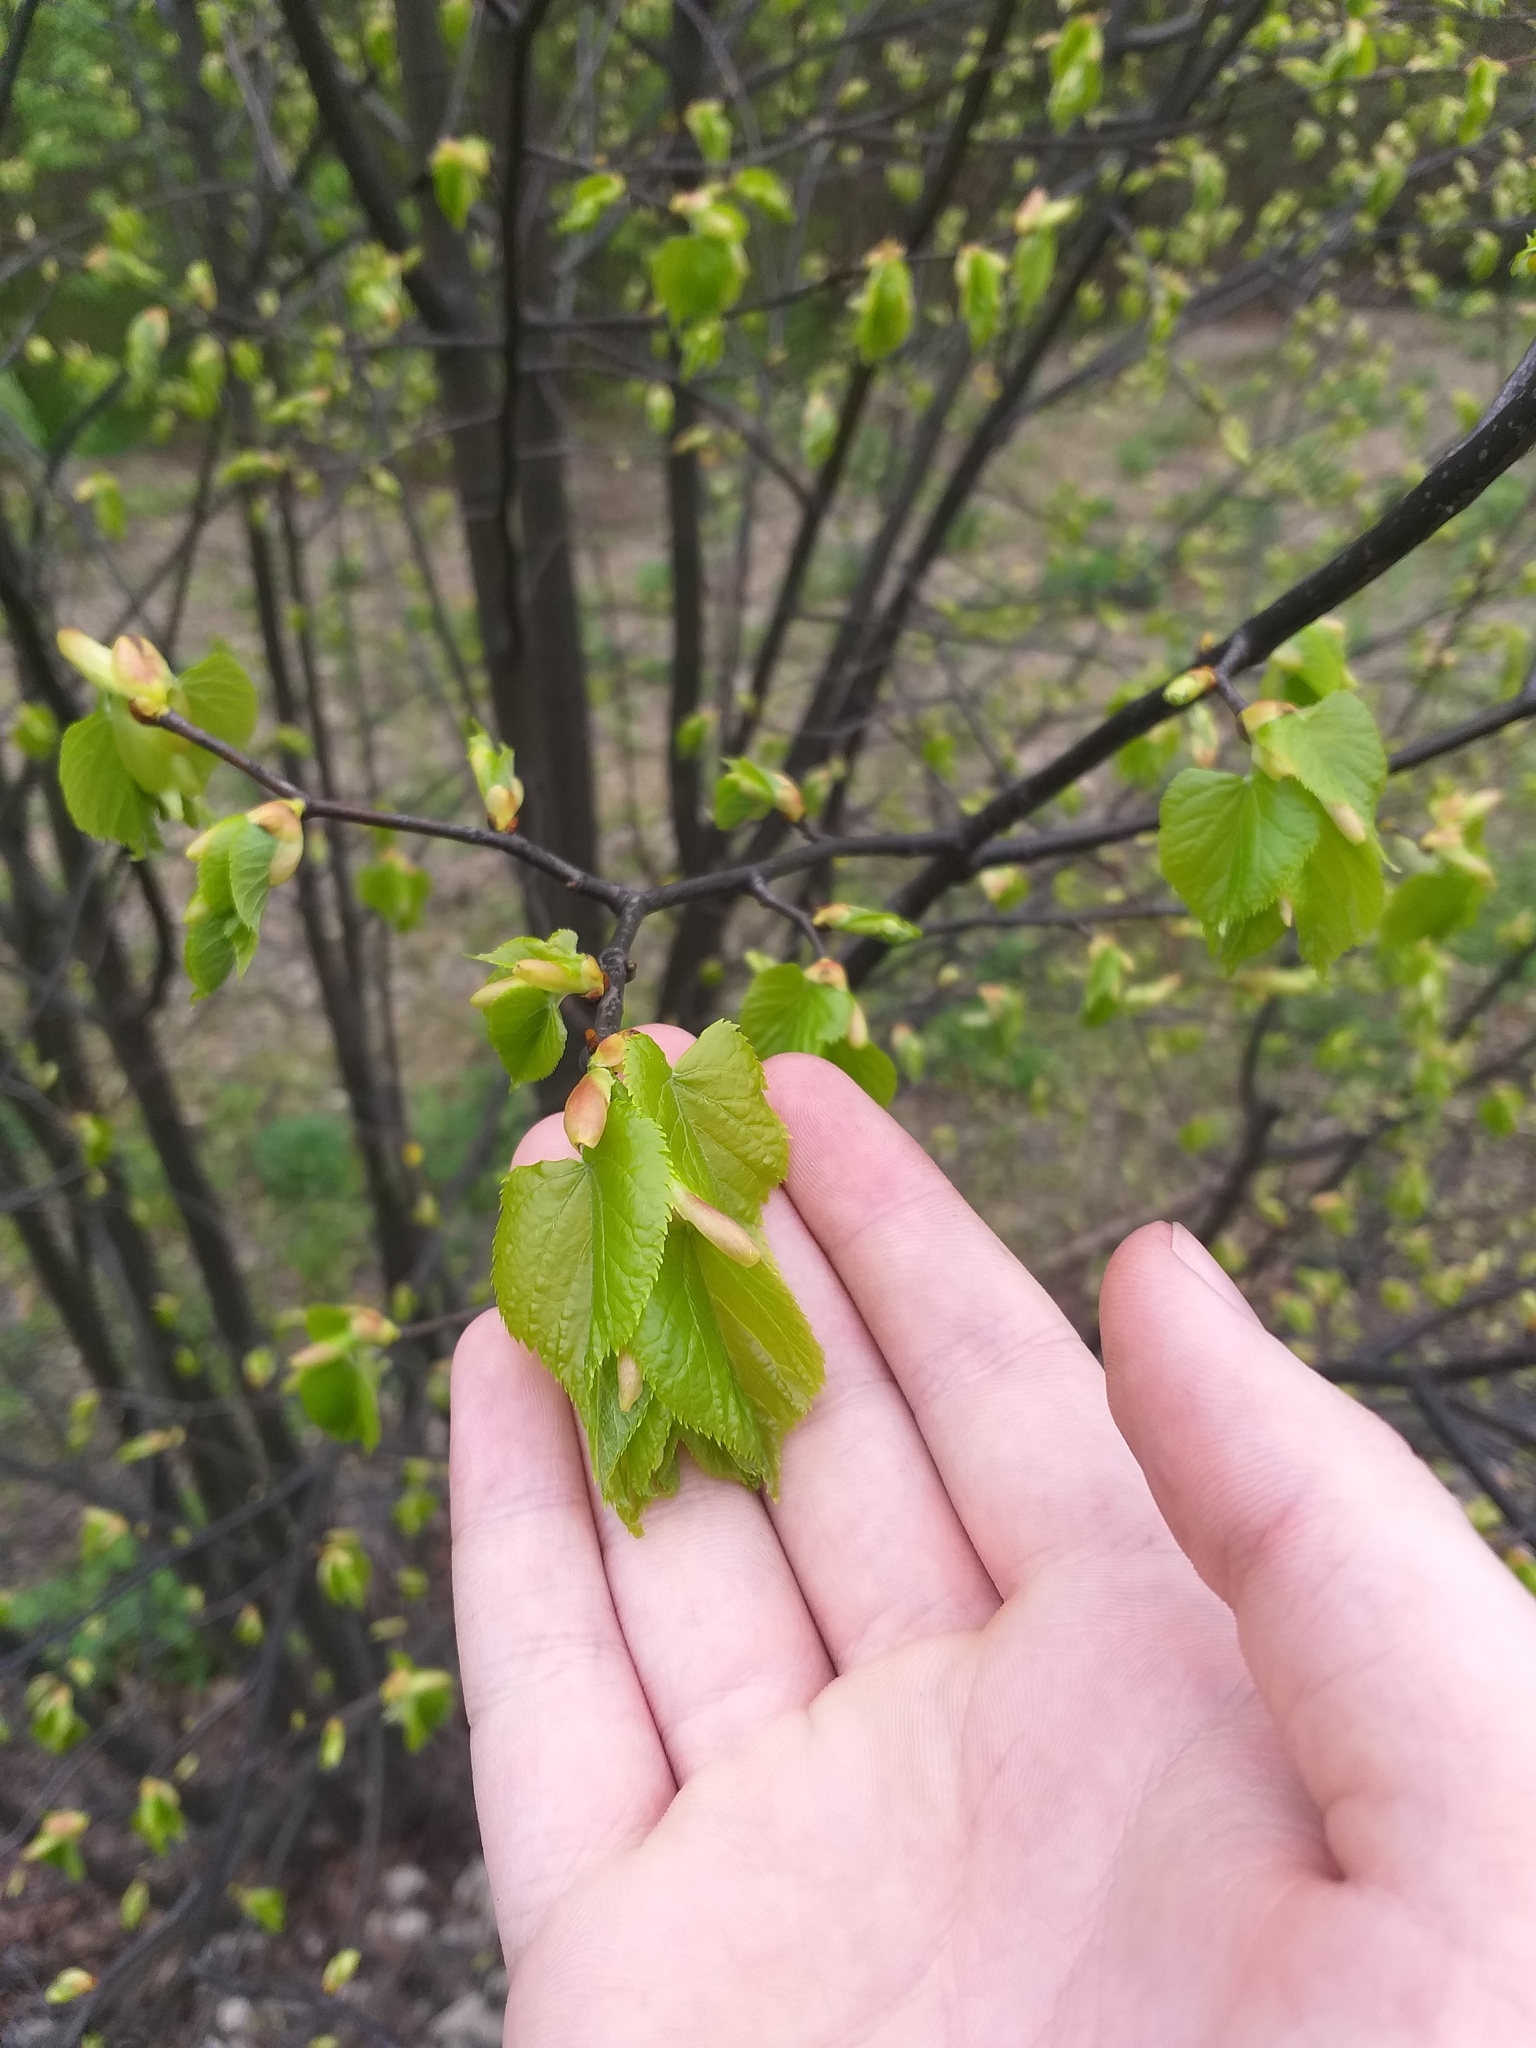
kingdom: Plantae
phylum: Tracheophyta
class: Magnoliopsida
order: Malvales
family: Malvaceae
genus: Tilia
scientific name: Tilia cordata
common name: Small-leaved lime
